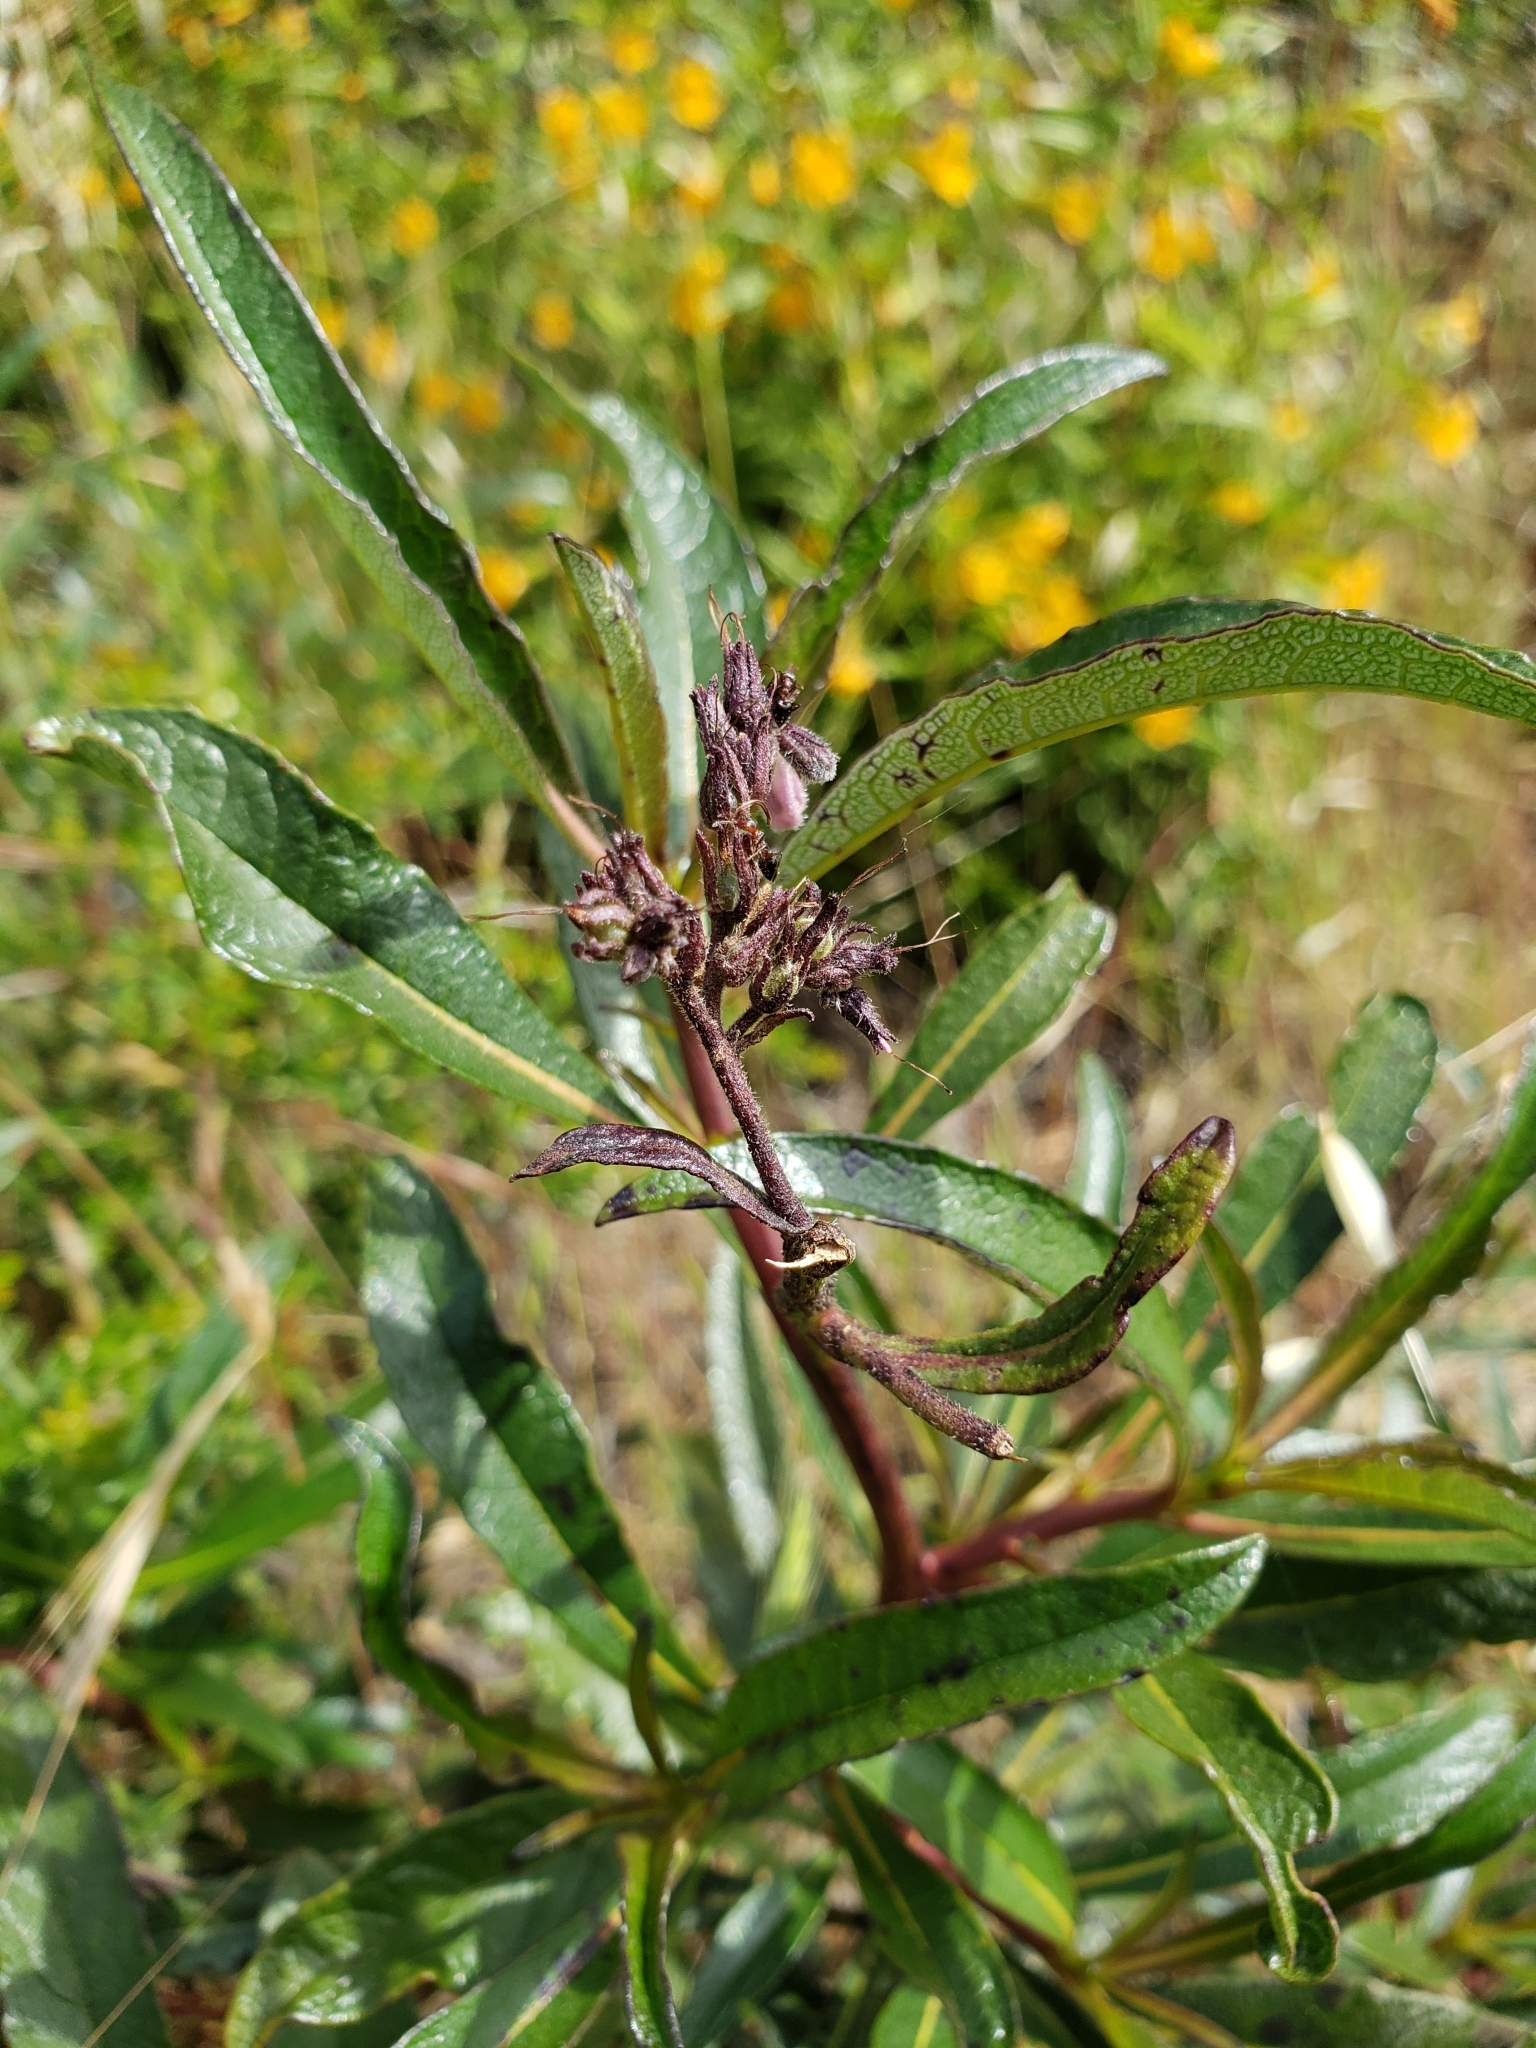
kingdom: Plantae
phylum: Tracheophyta
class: Magnoliopsida
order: Boraginales
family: Namaceae
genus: Eriodictyon
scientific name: Eriodictyon californicum
